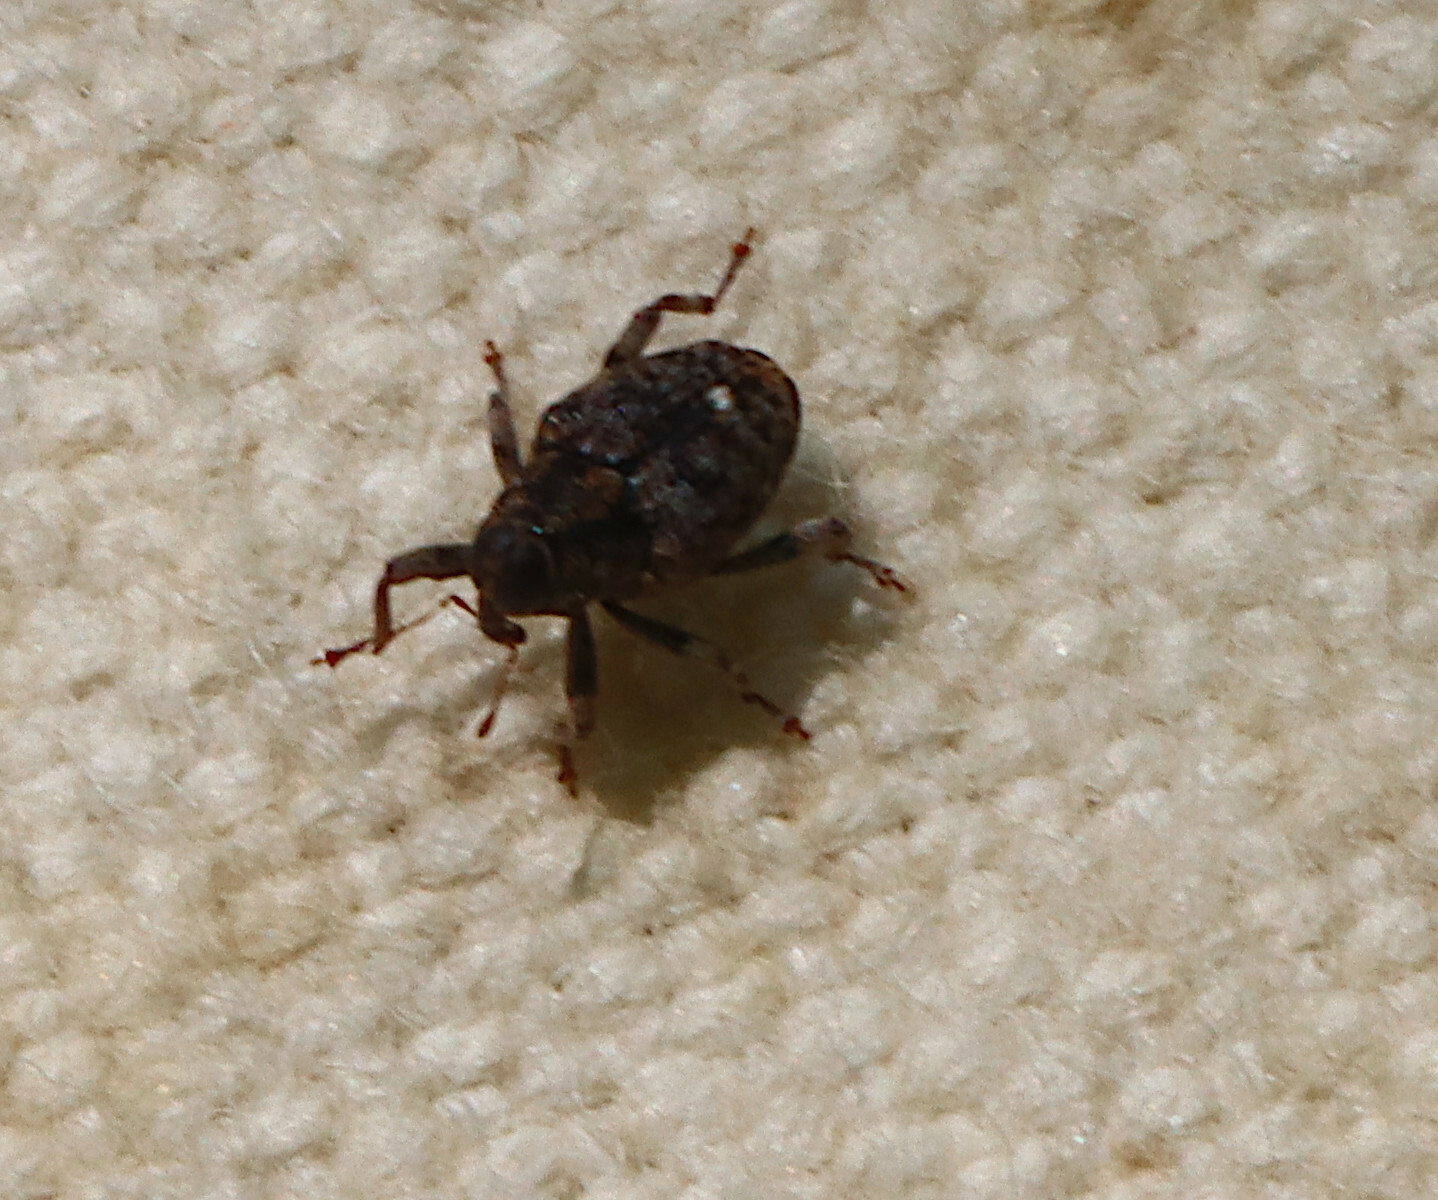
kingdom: Animalia
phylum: Arthropoda
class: Insecta
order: Coleoptera
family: Curculionidae
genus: Lechriops
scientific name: Lechriops oculatus
